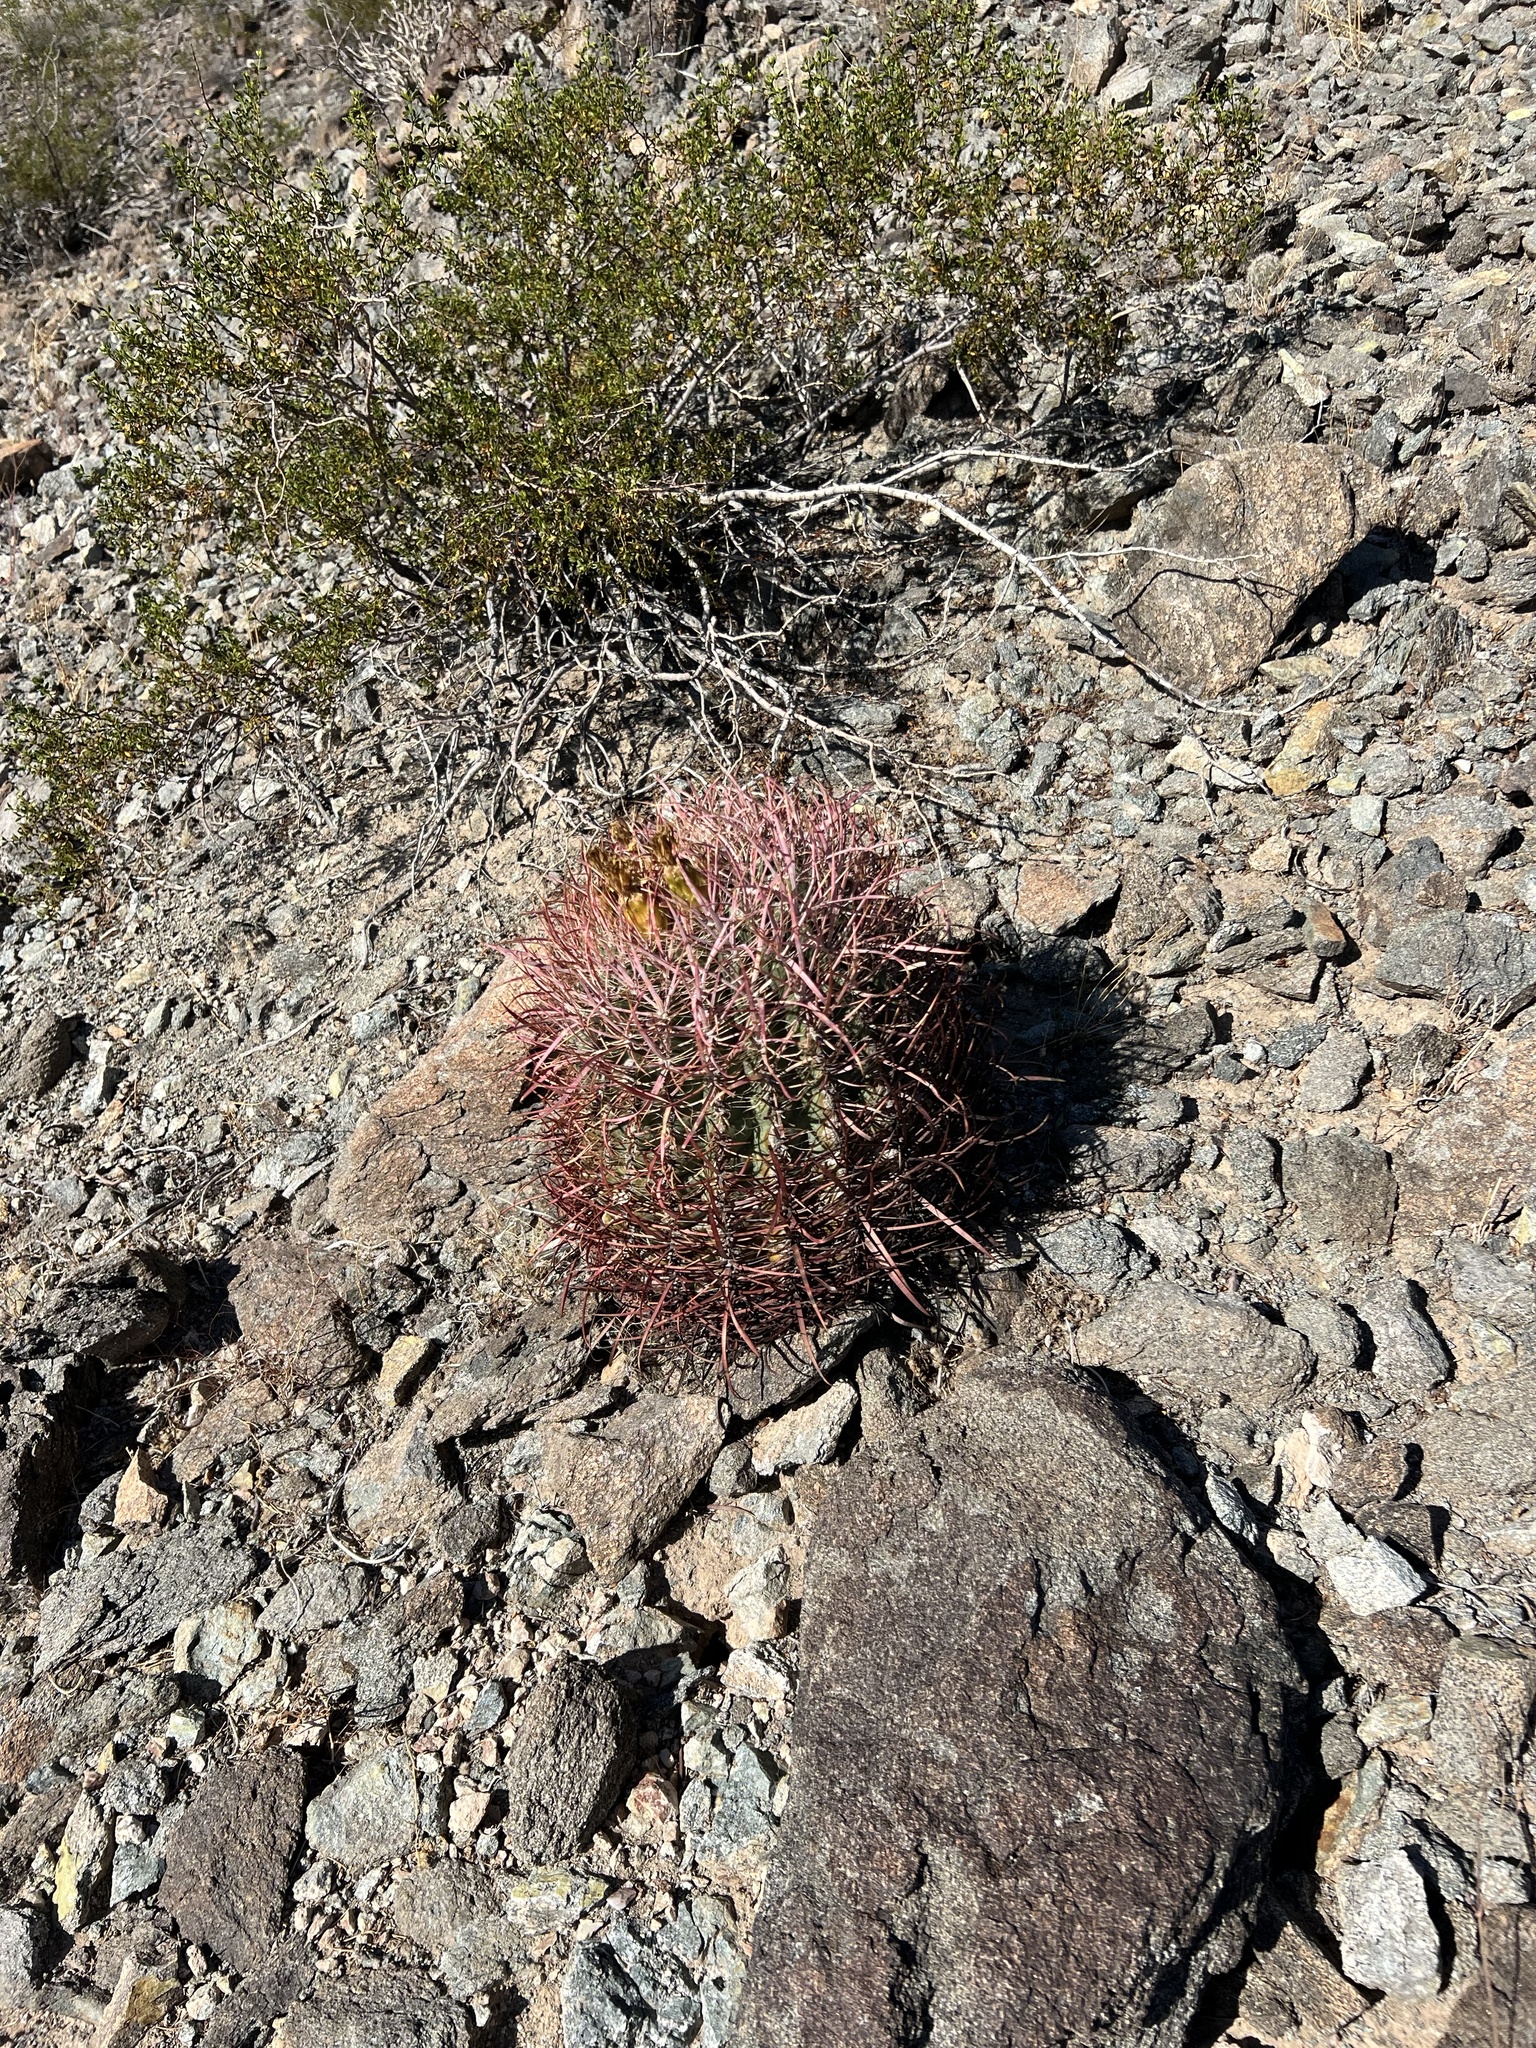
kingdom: Plantae
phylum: Tracheophyta
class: Magnoliopsida
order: Caryophyllales
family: Cactaceae
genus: Ferocactus
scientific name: Ferocactus cylindraceus
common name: California barrel cactus
